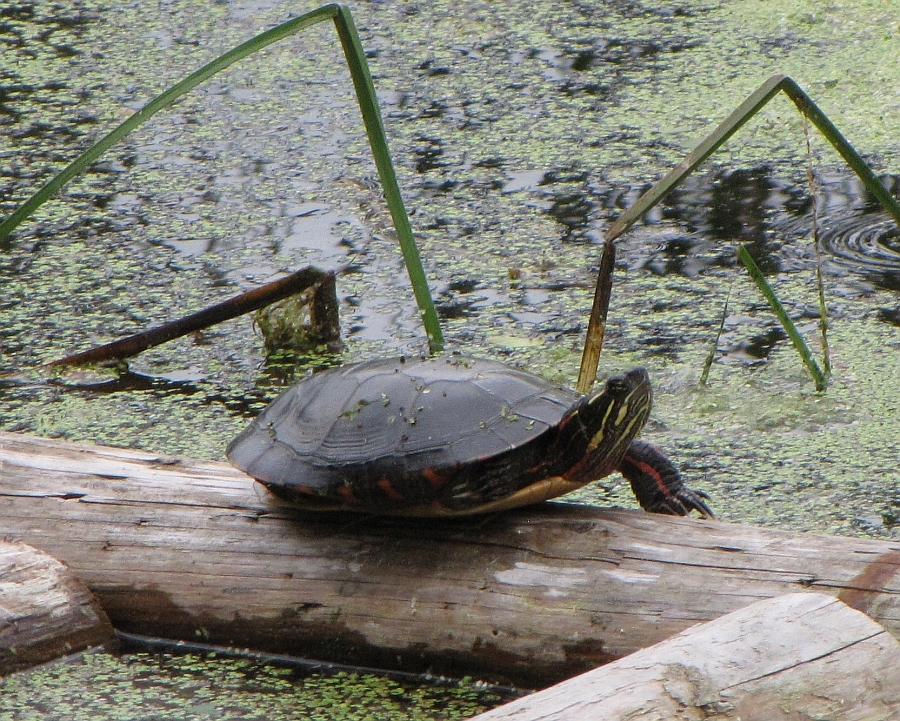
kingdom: Animalia
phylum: Chordata
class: Testudines
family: Emydidae
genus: Chrysemys
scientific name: Chrysemys picta
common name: Painted turtle
